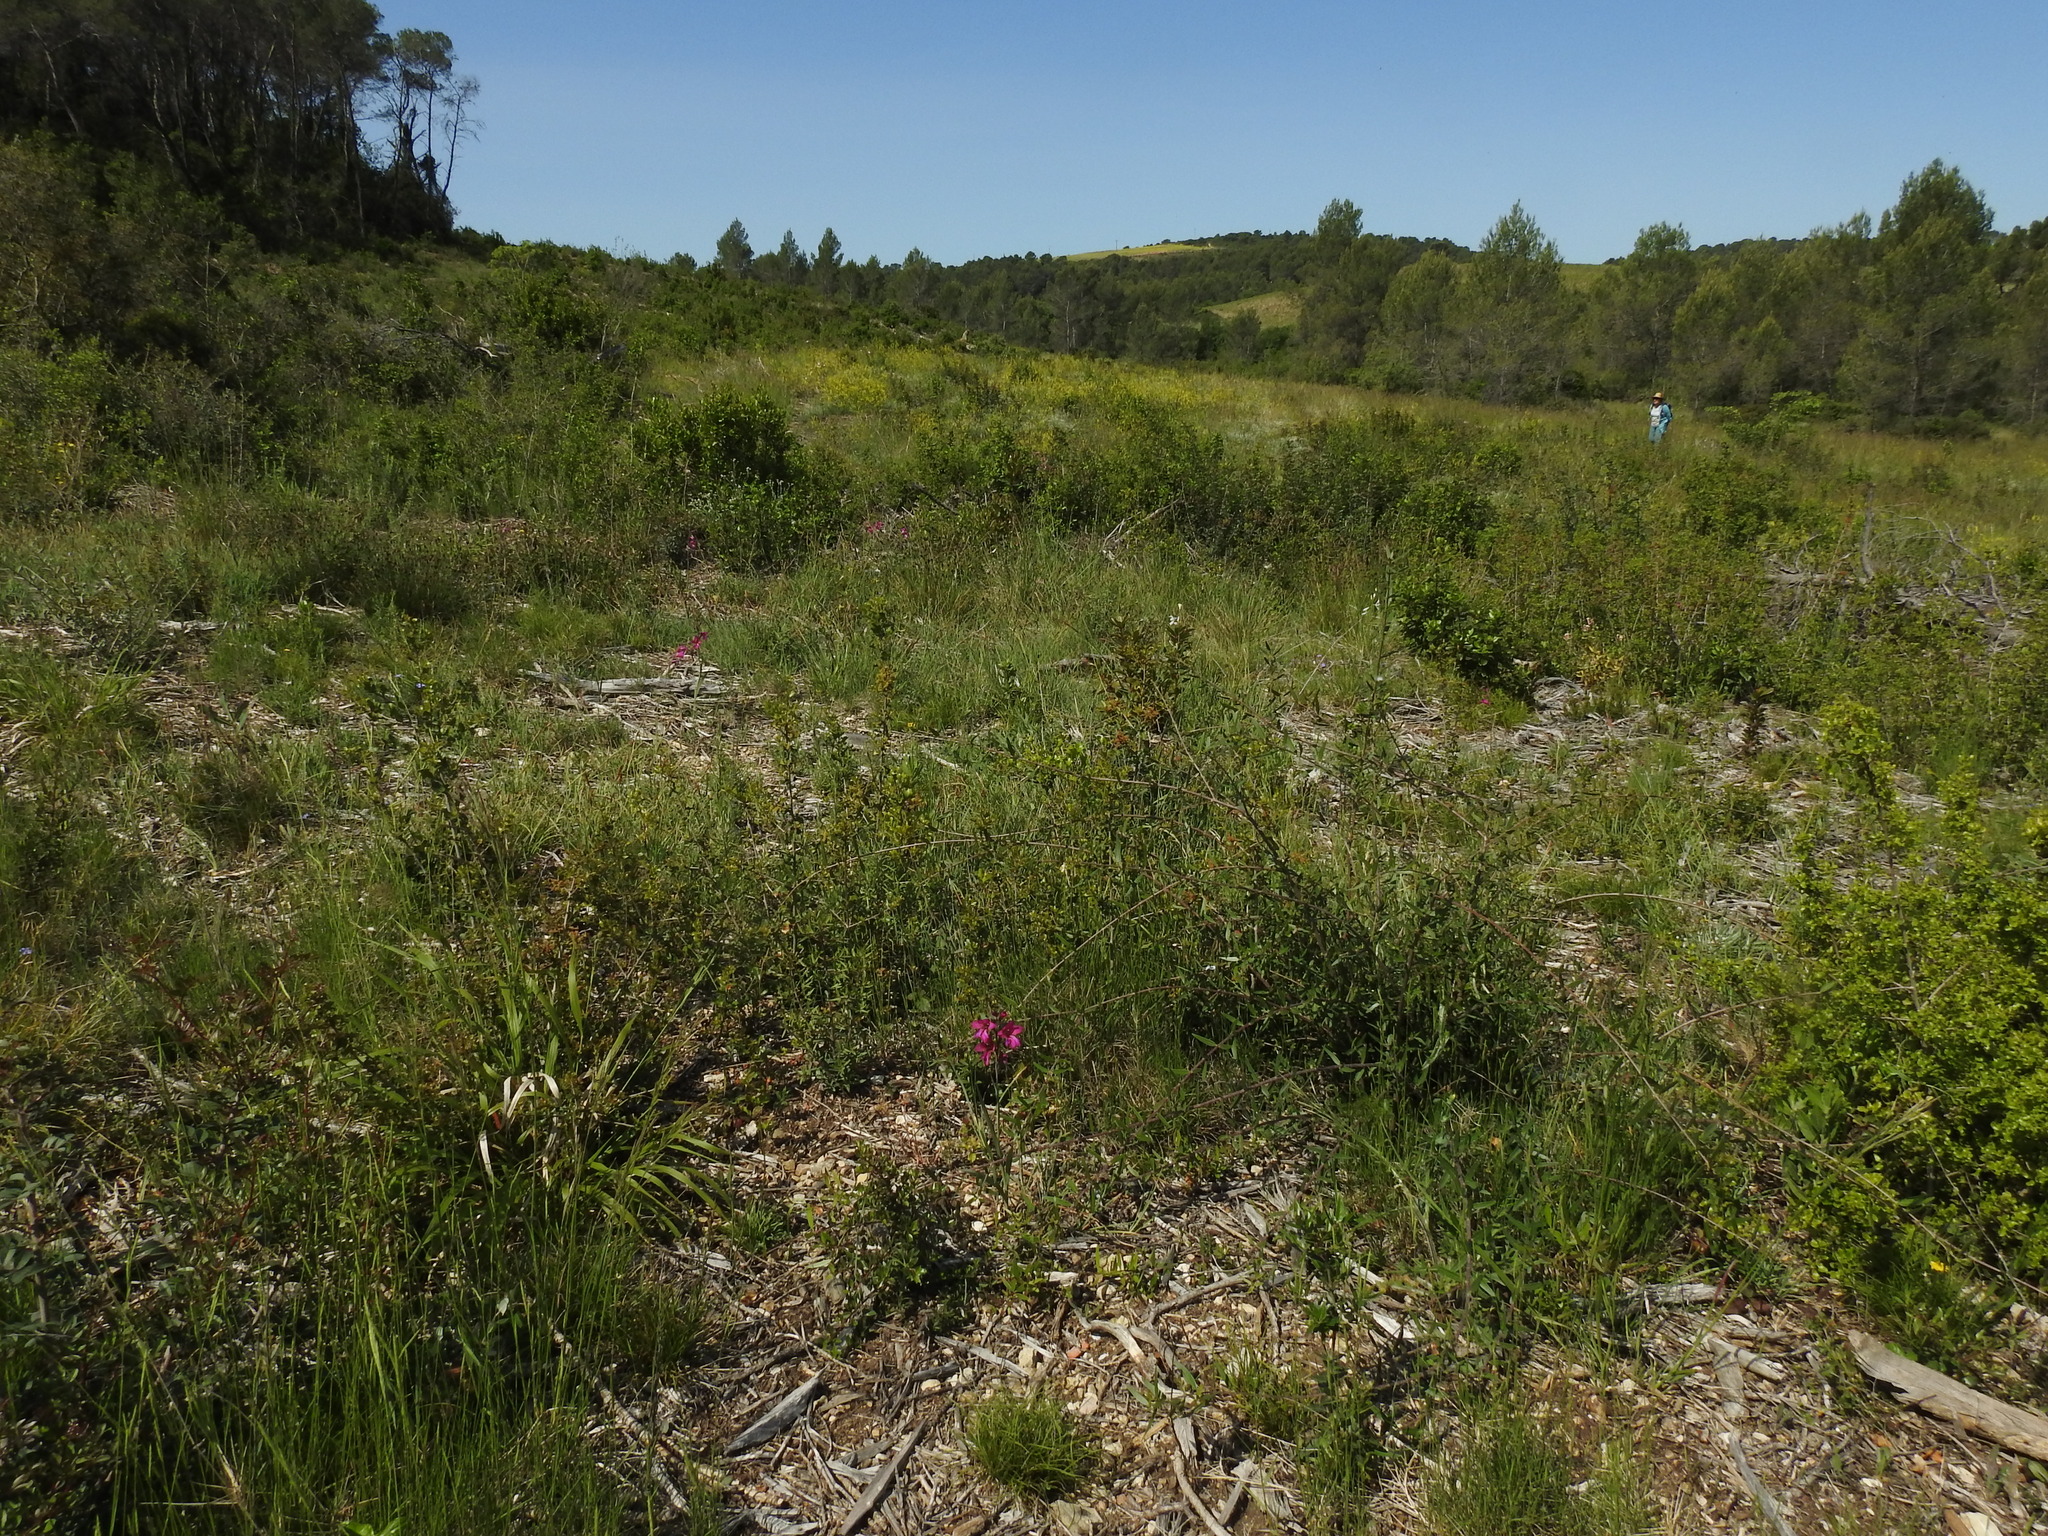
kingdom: Plantae
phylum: Tracheophyta
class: Liliopsida
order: Asparagales
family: Iridaceae
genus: Gladiolus
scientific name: Gladiolus dubius
